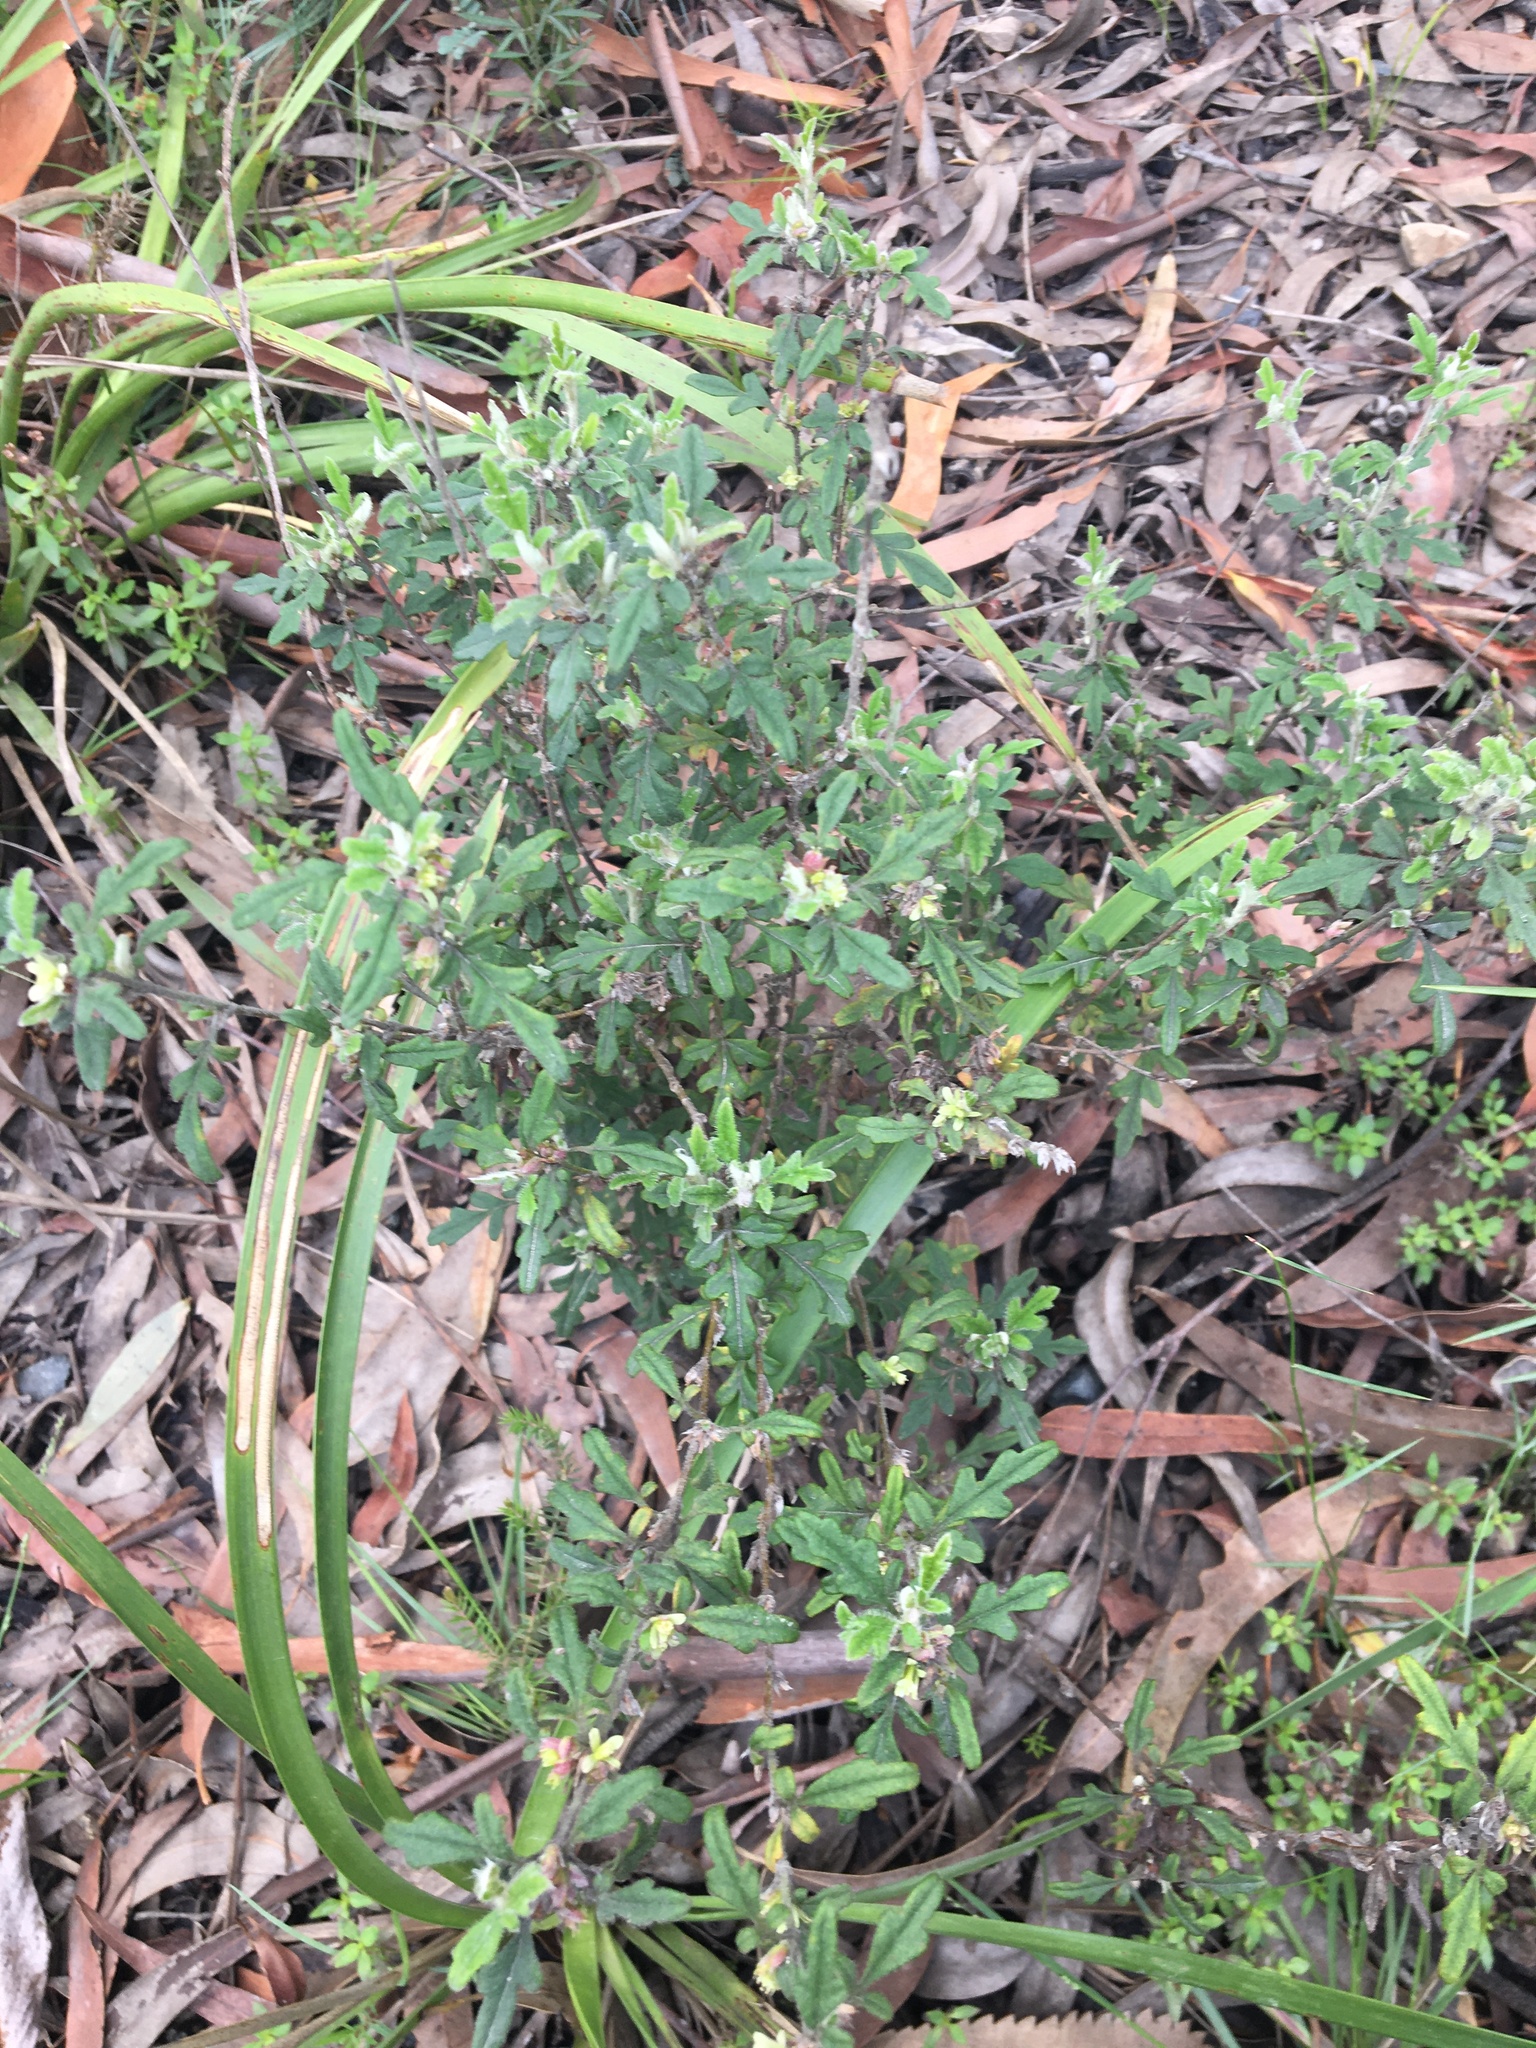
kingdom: Plantae
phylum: Tracheophyta
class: Magnoliopsida
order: Apiales
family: Apiaceae
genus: Xanthosia
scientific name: Xanthosia pilosa
